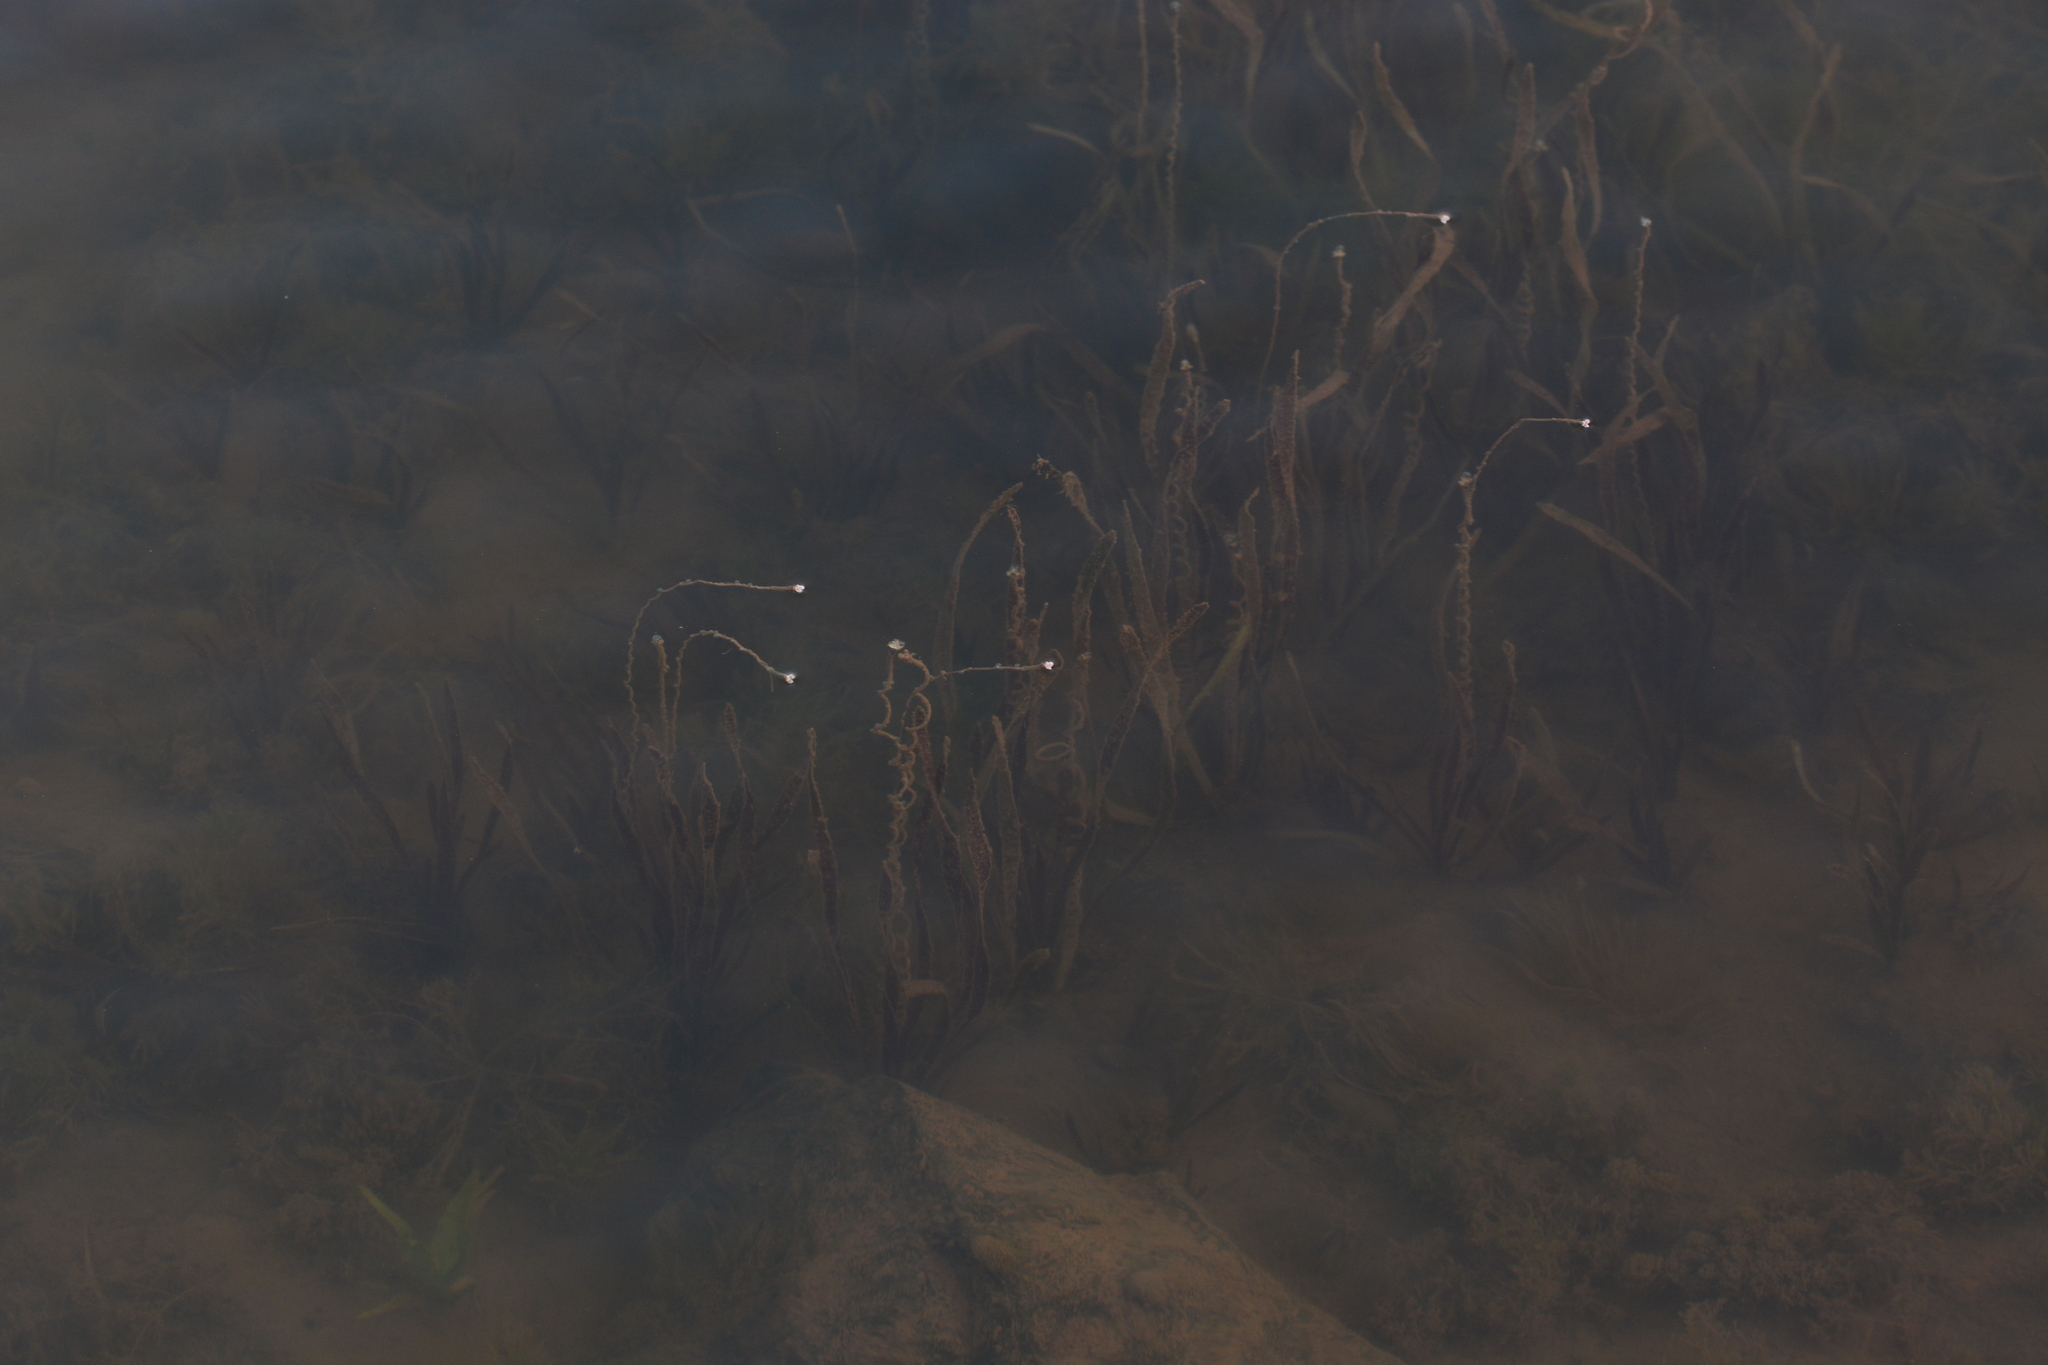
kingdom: Plantae
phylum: Tracheophyta
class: Liliopsida
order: Alismatales
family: Hydrocharitaceae
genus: Vallisneria
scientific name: Vallisneria spiralis
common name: Tapegrass
